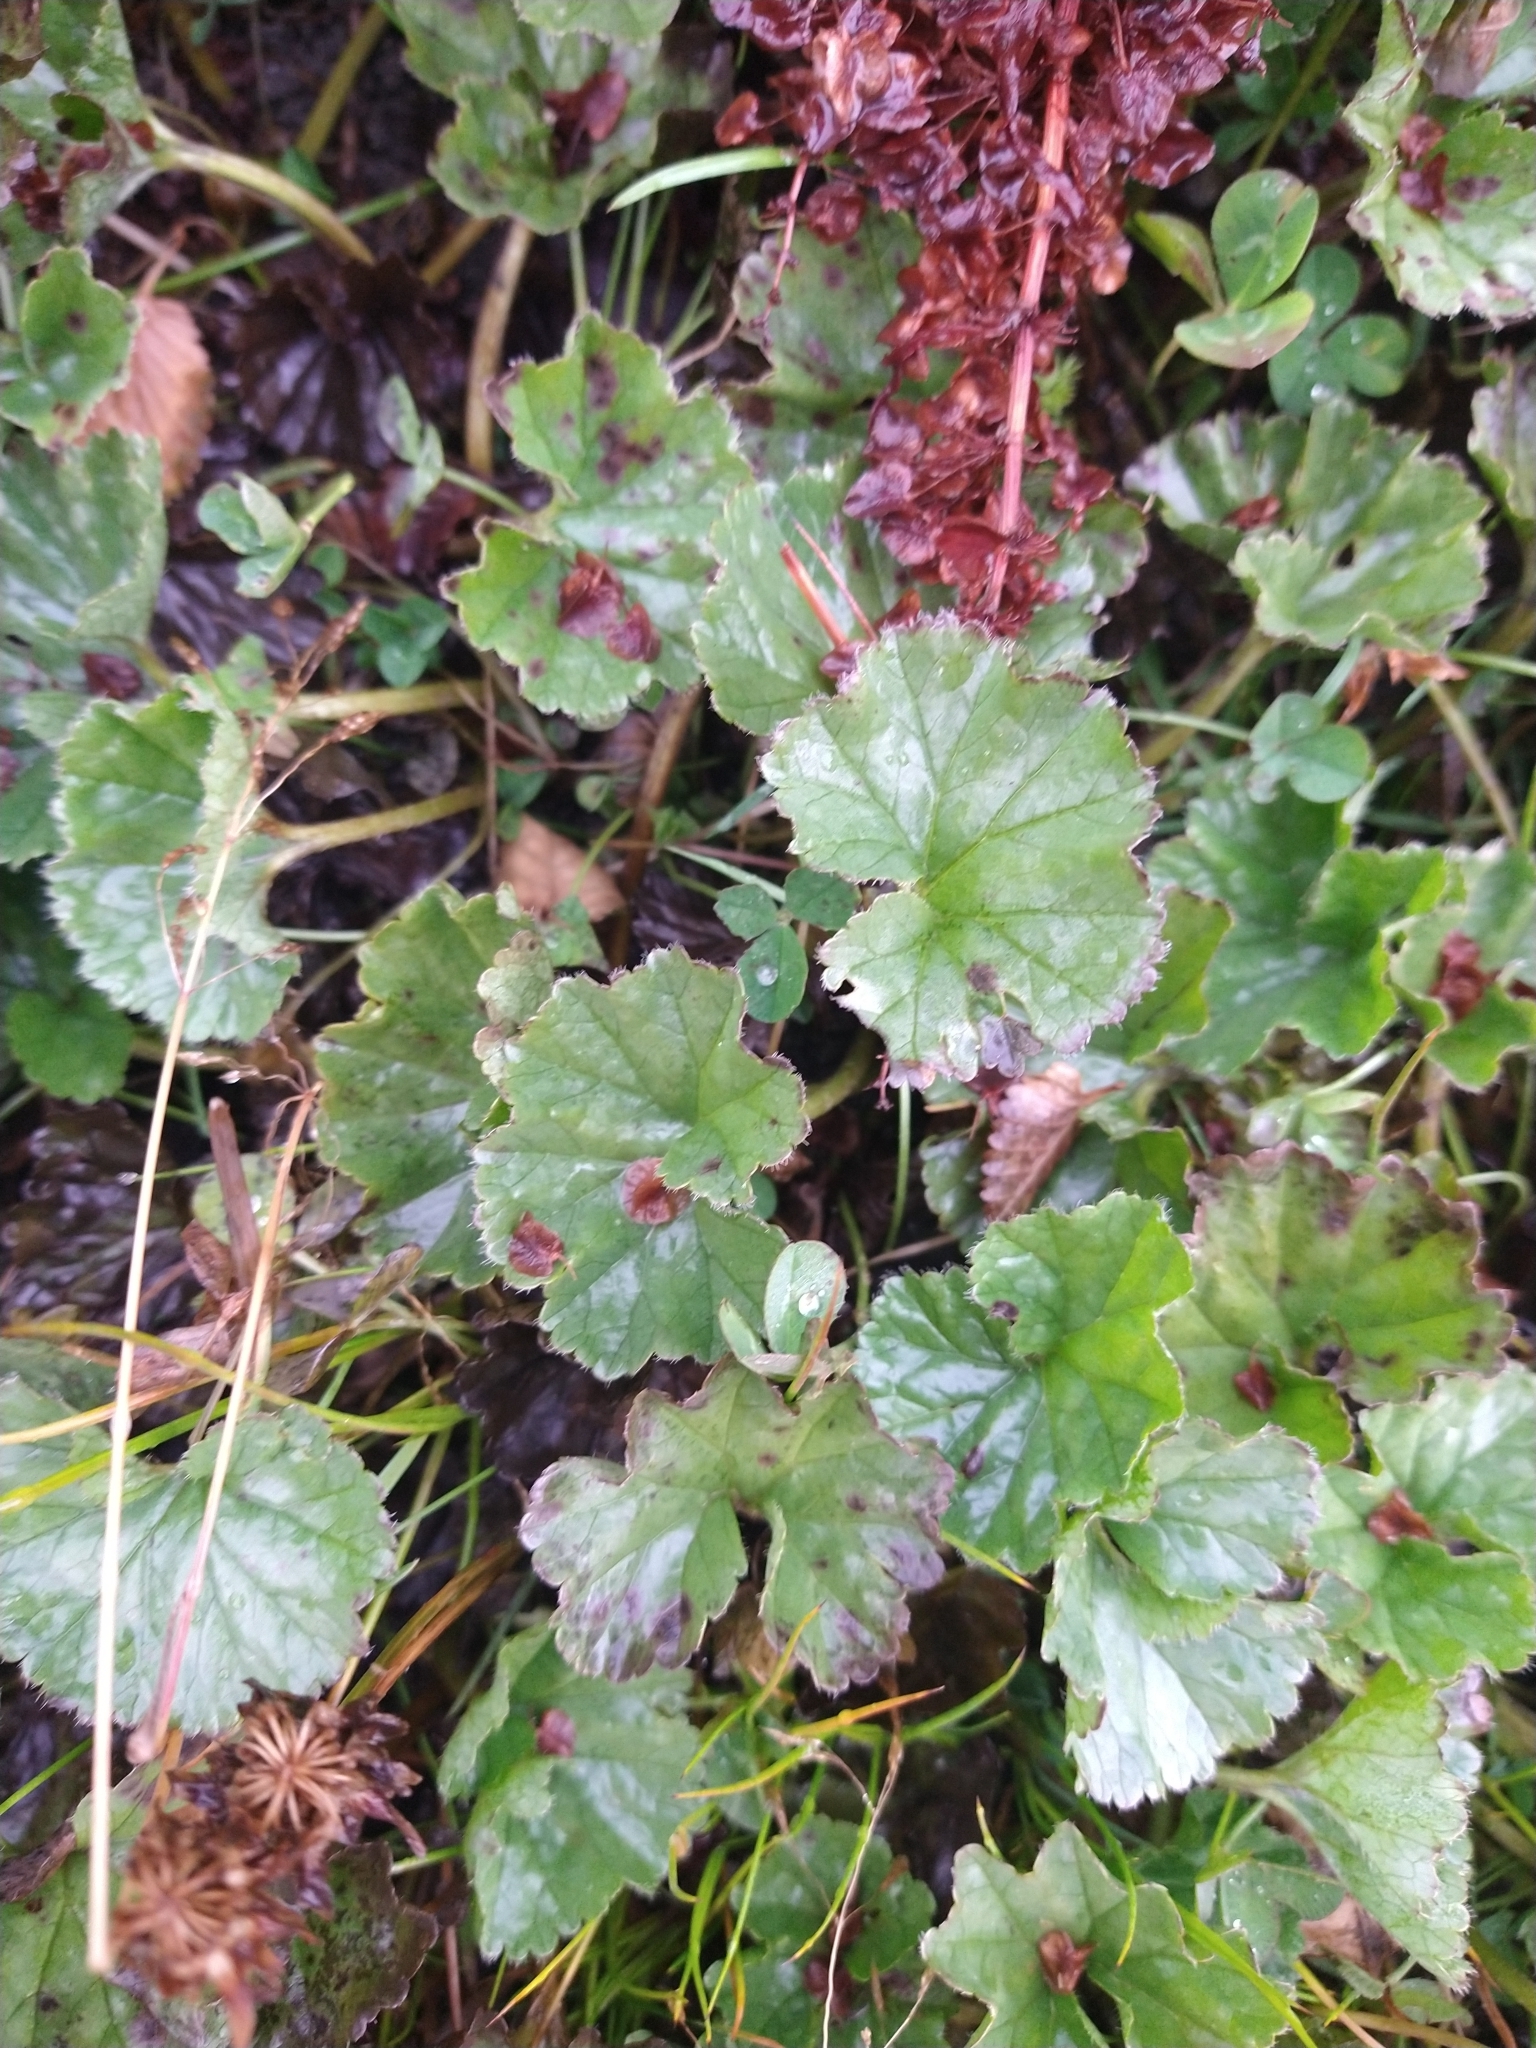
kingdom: Plantae
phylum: Tracheophyta
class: Magnoliopsida
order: Gunnerales
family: Gunneraceae
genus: Gunnera
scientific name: Gunnera magellanica
